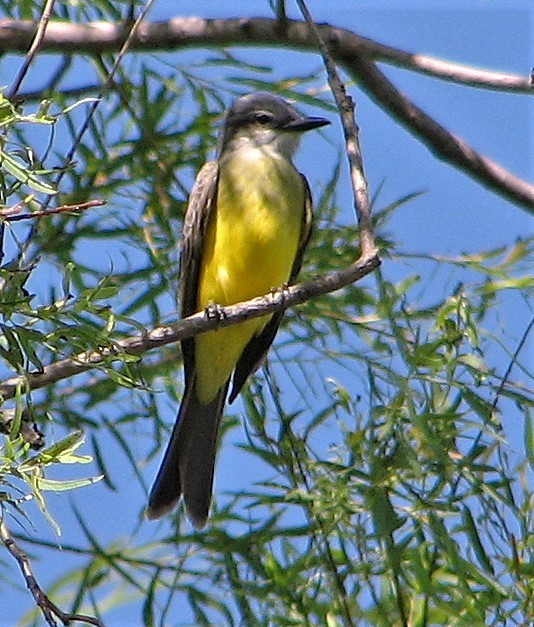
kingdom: Animalia
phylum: Chordata
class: Aves
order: Passeriformes
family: Tyrannidae
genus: Tyrannus
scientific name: Tyrannus melancholicus
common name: Tropical kingbird
